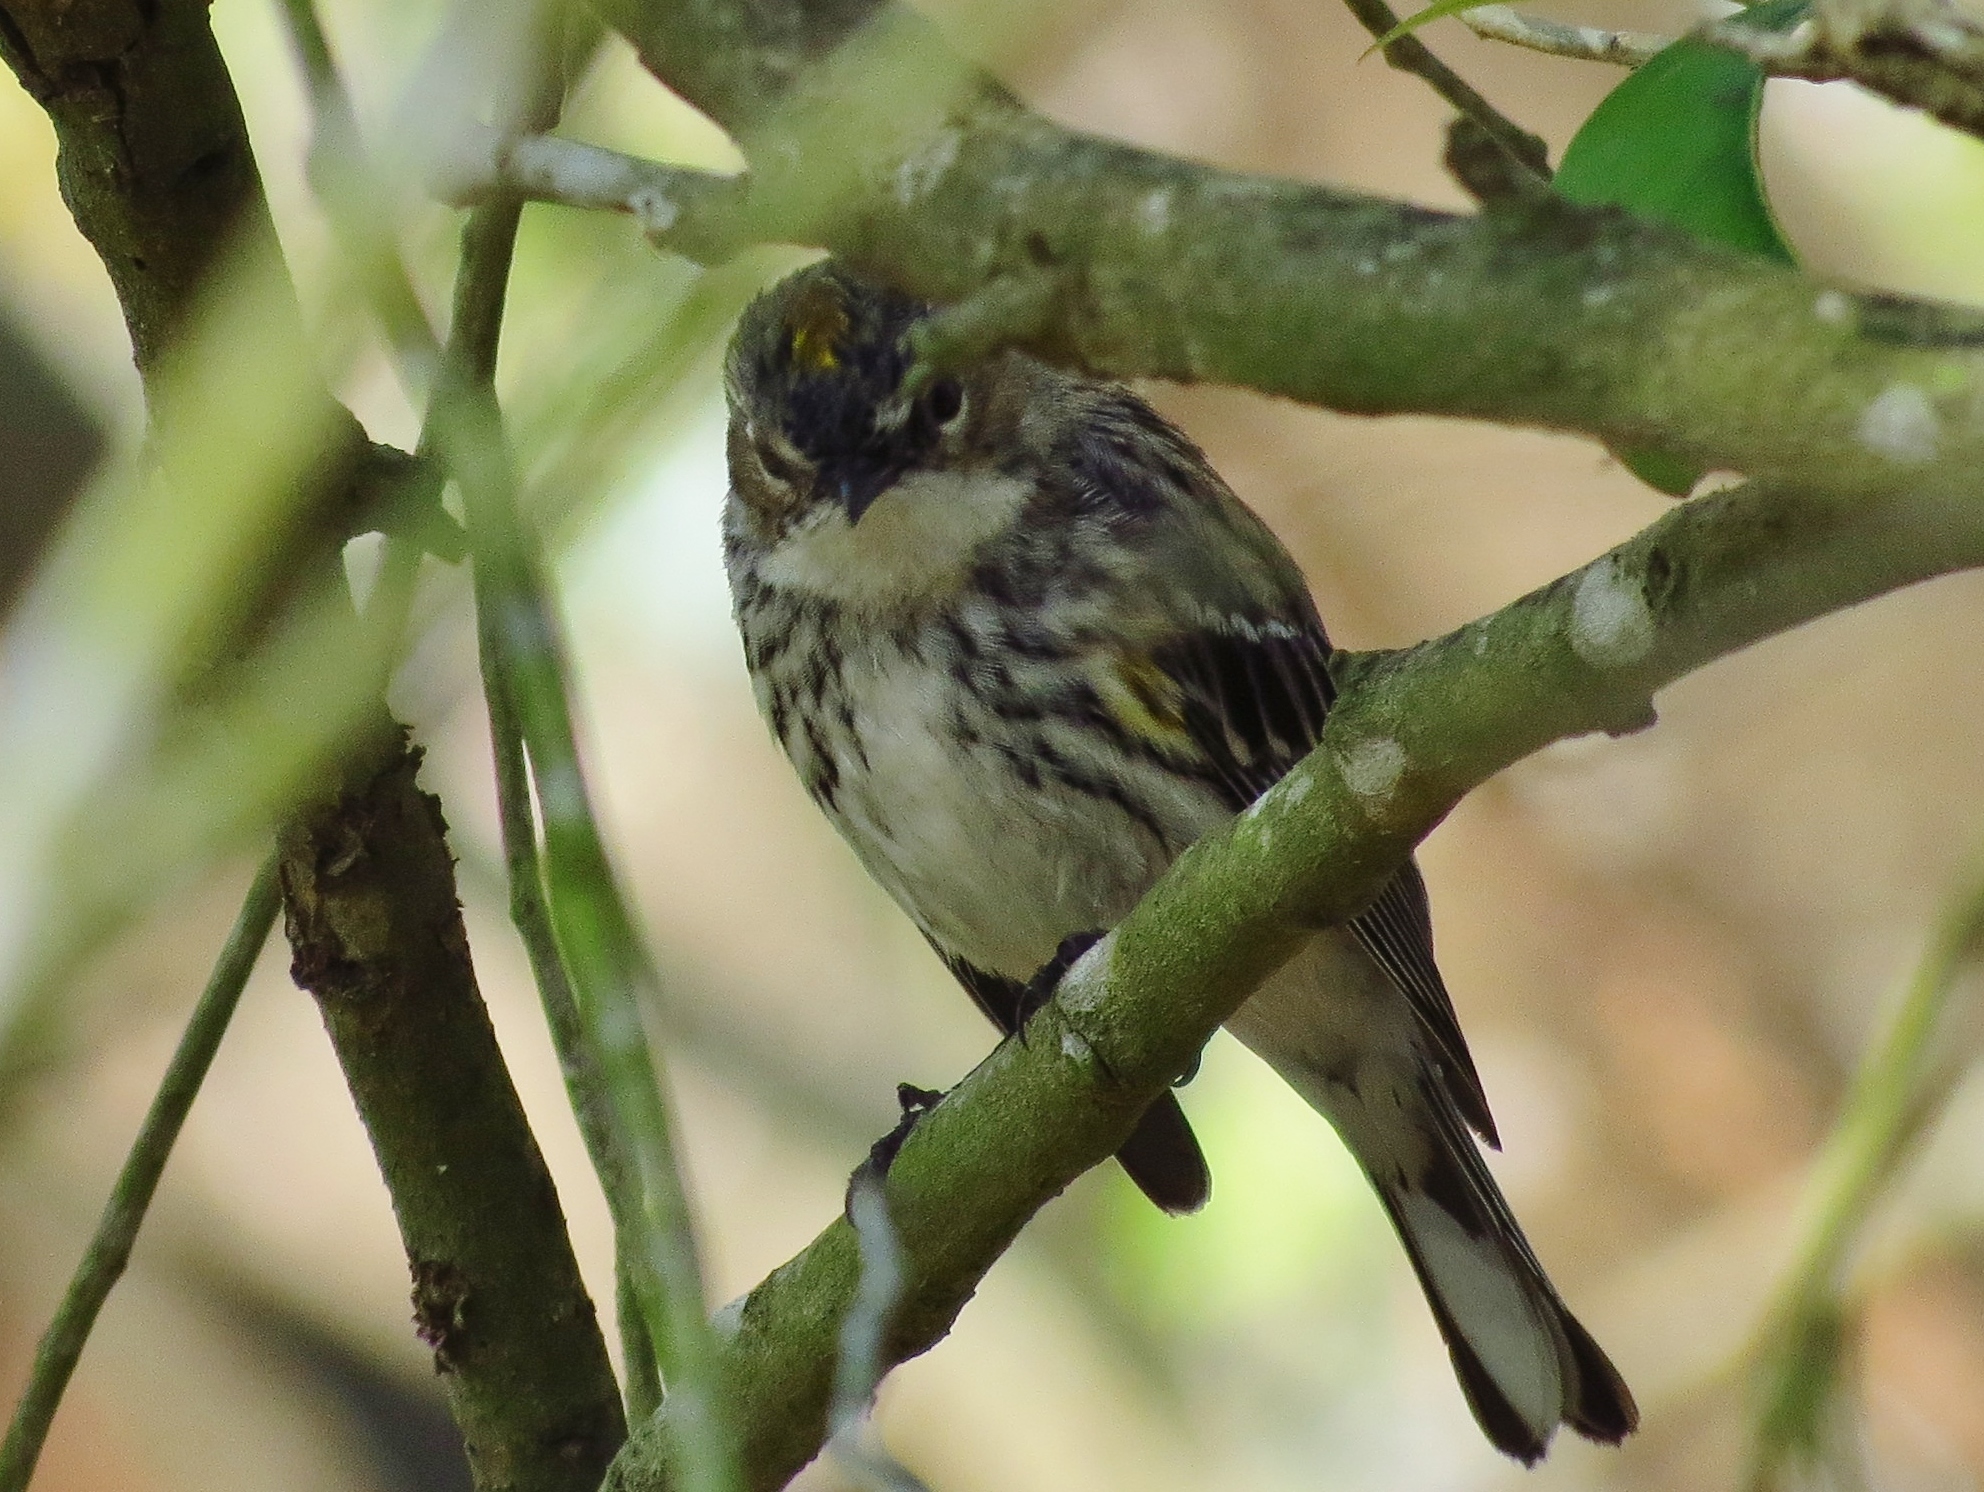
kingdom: Animalia
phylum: Chordata
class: Aves
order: Passeriformes
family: Parulidae
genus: Setophaga
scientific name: Setophaga coronata
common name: Myrtle warbler
